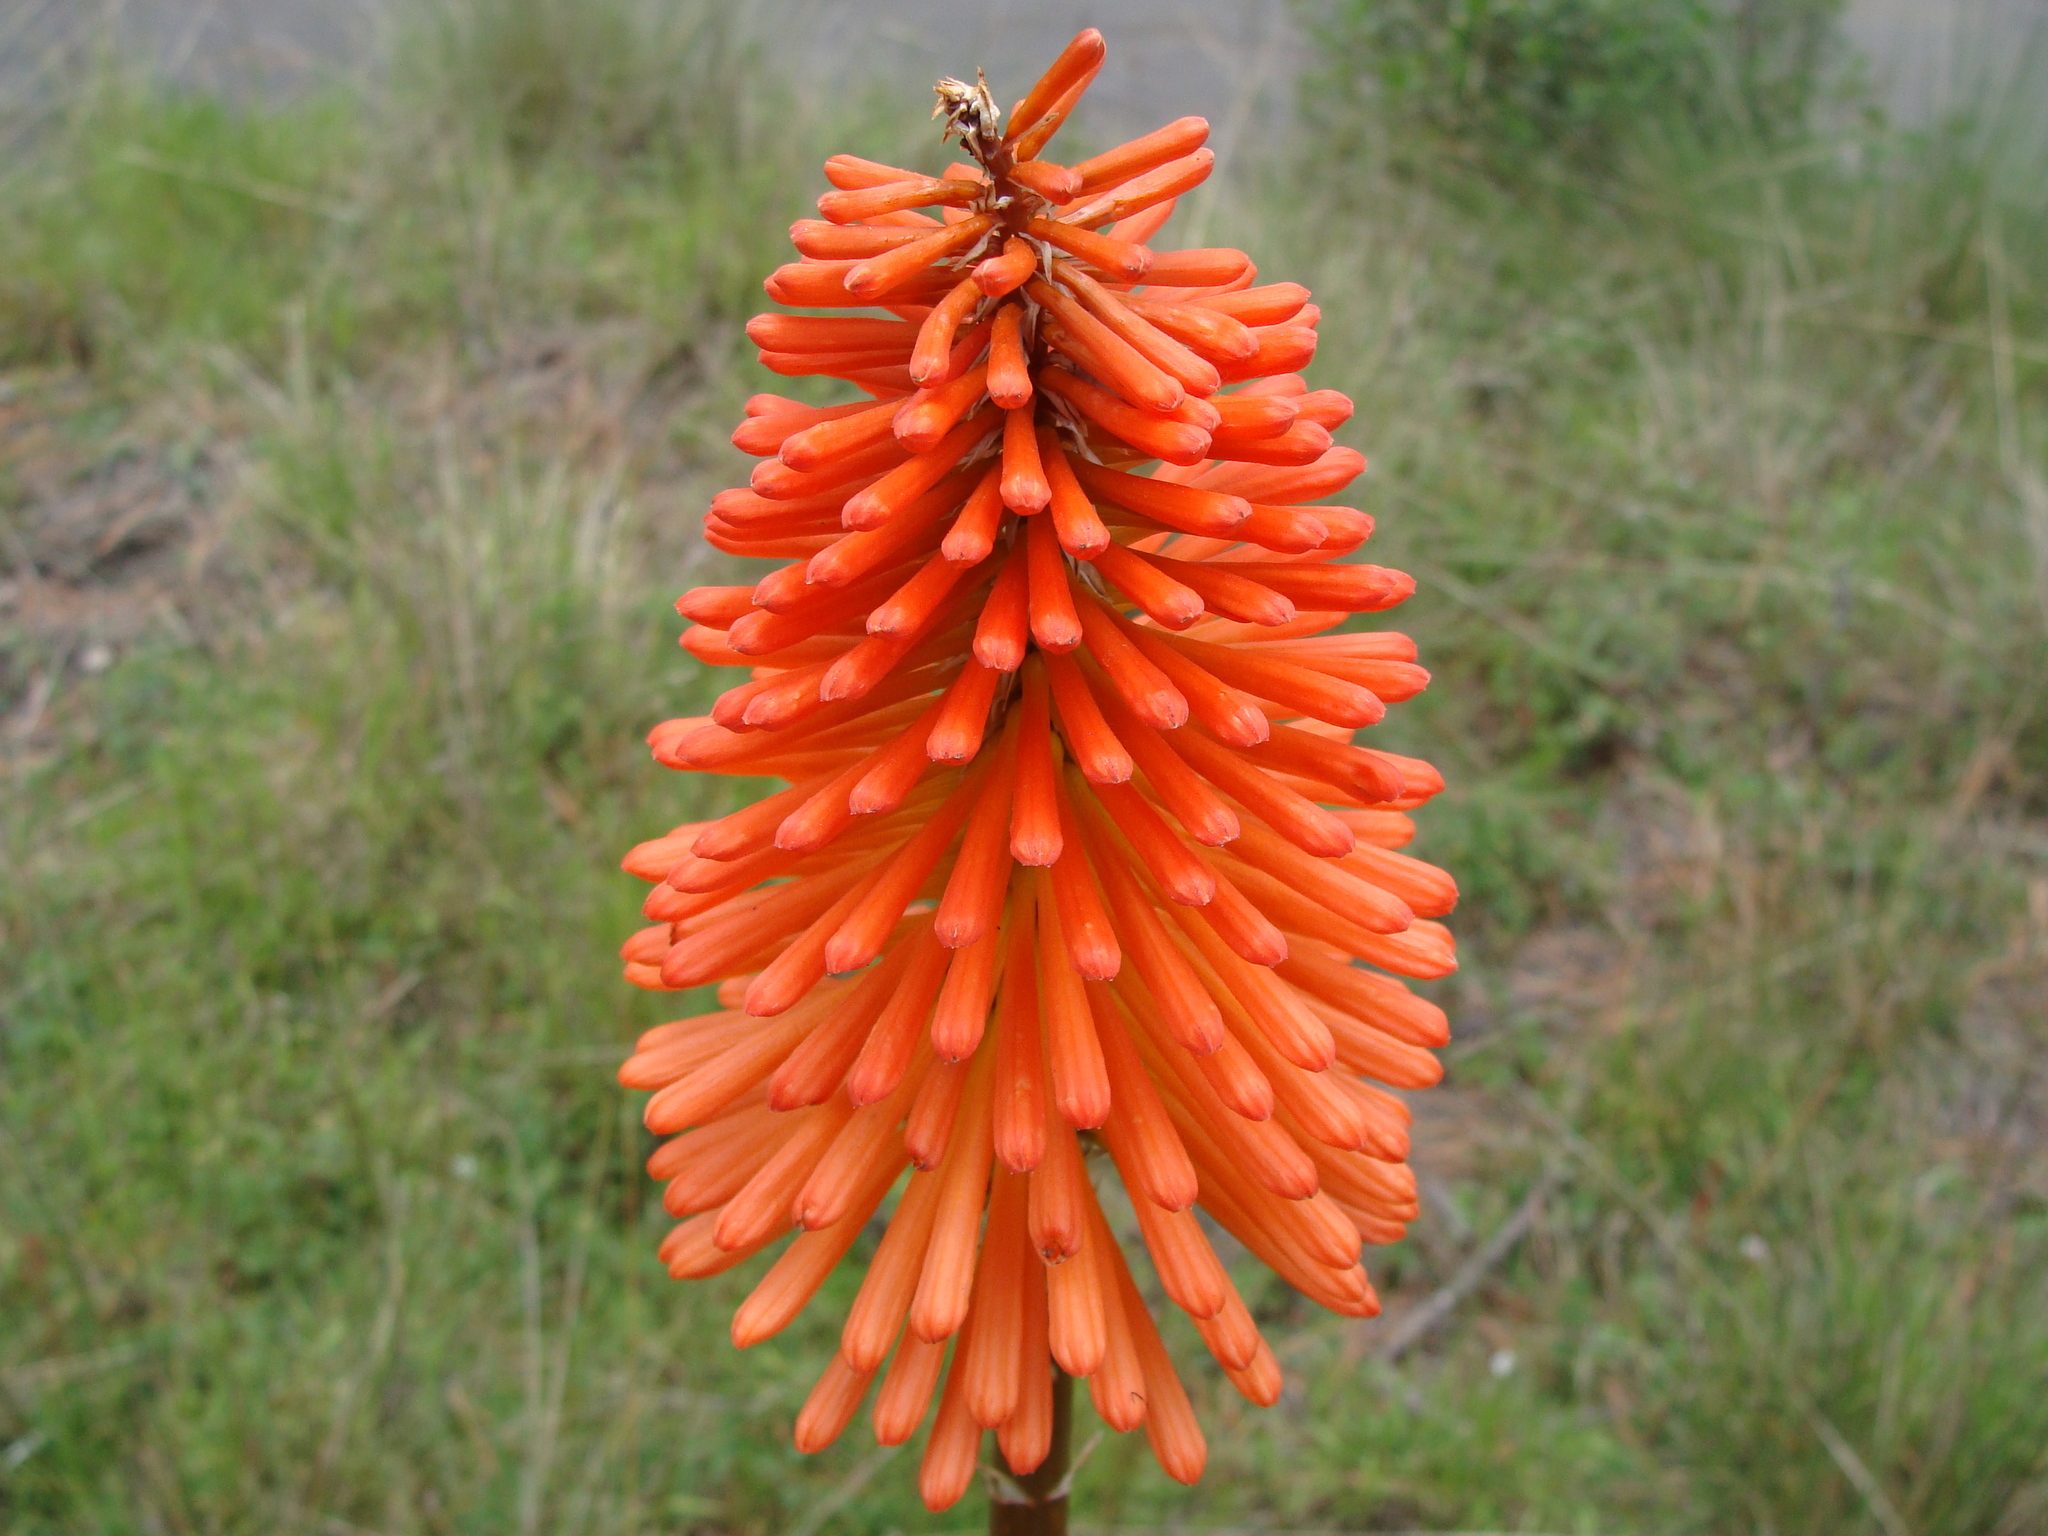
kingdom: Plantae
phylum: Tracheophyta
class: Liliopsida
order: Asparagales
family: Asphodelaceae
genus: Kniphofia
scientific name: Kniphofia uvaria
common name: Red-hot-poker
